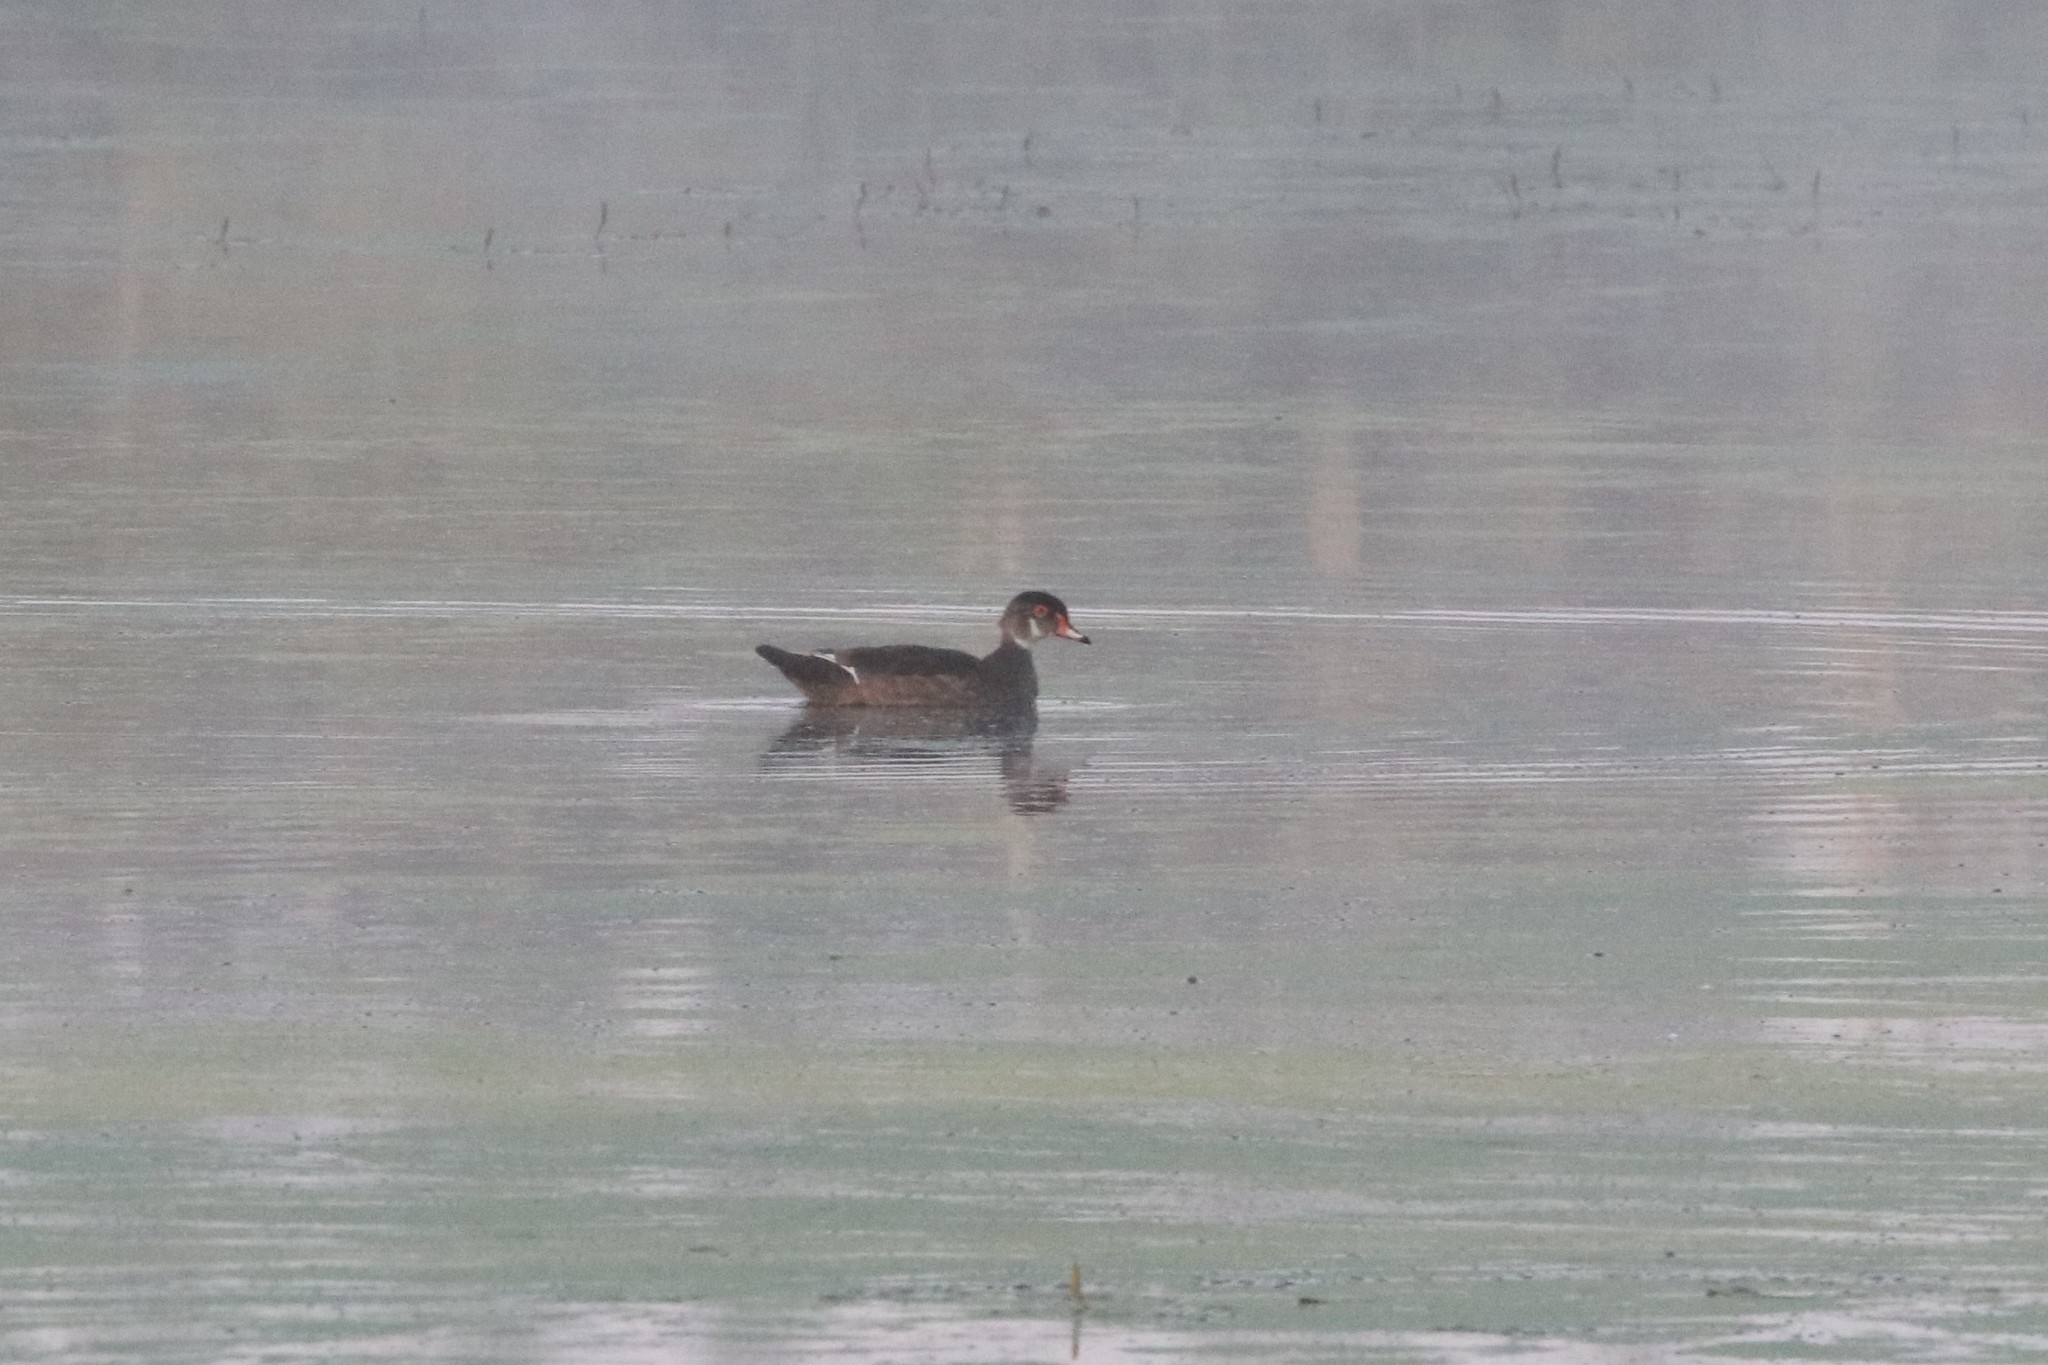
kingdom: Animalia
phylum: Chordata
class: Aves
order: Anseriformes
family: Anatidae
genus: Aix
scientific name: Aix sponsa
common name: Wood duck
